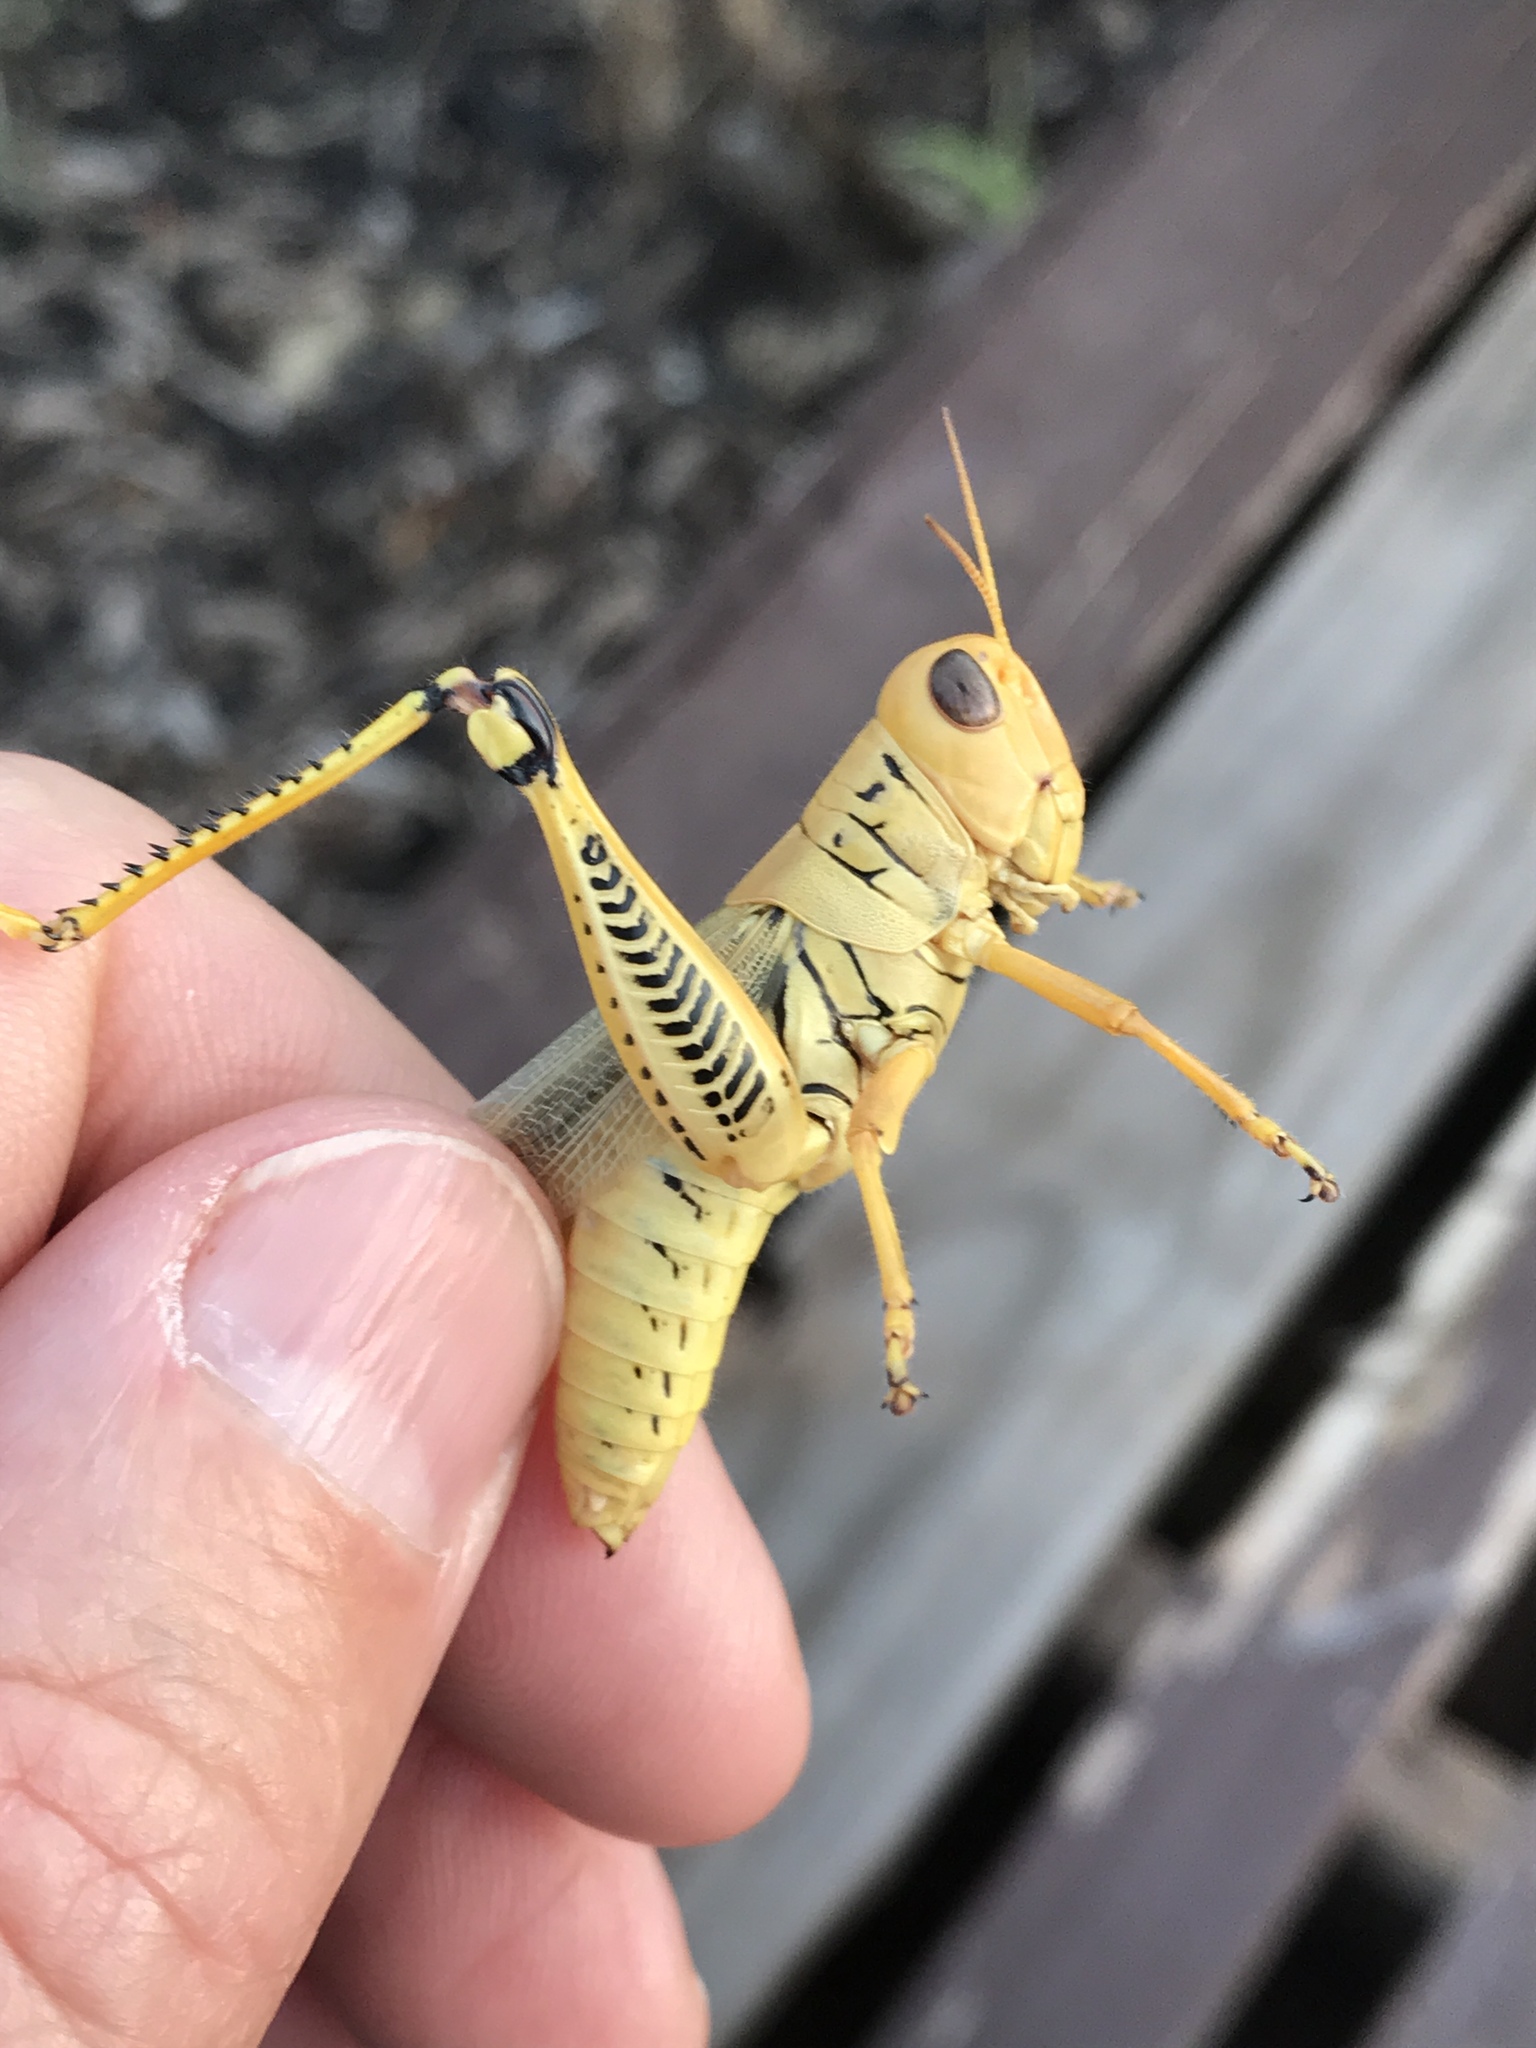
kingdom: Animalia
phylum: Arthropoda
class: Insecta
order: Orthoptera
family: Acrididae
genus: Melanoplus
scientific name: Melanoplus differentialis
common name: Differential grasshopper
